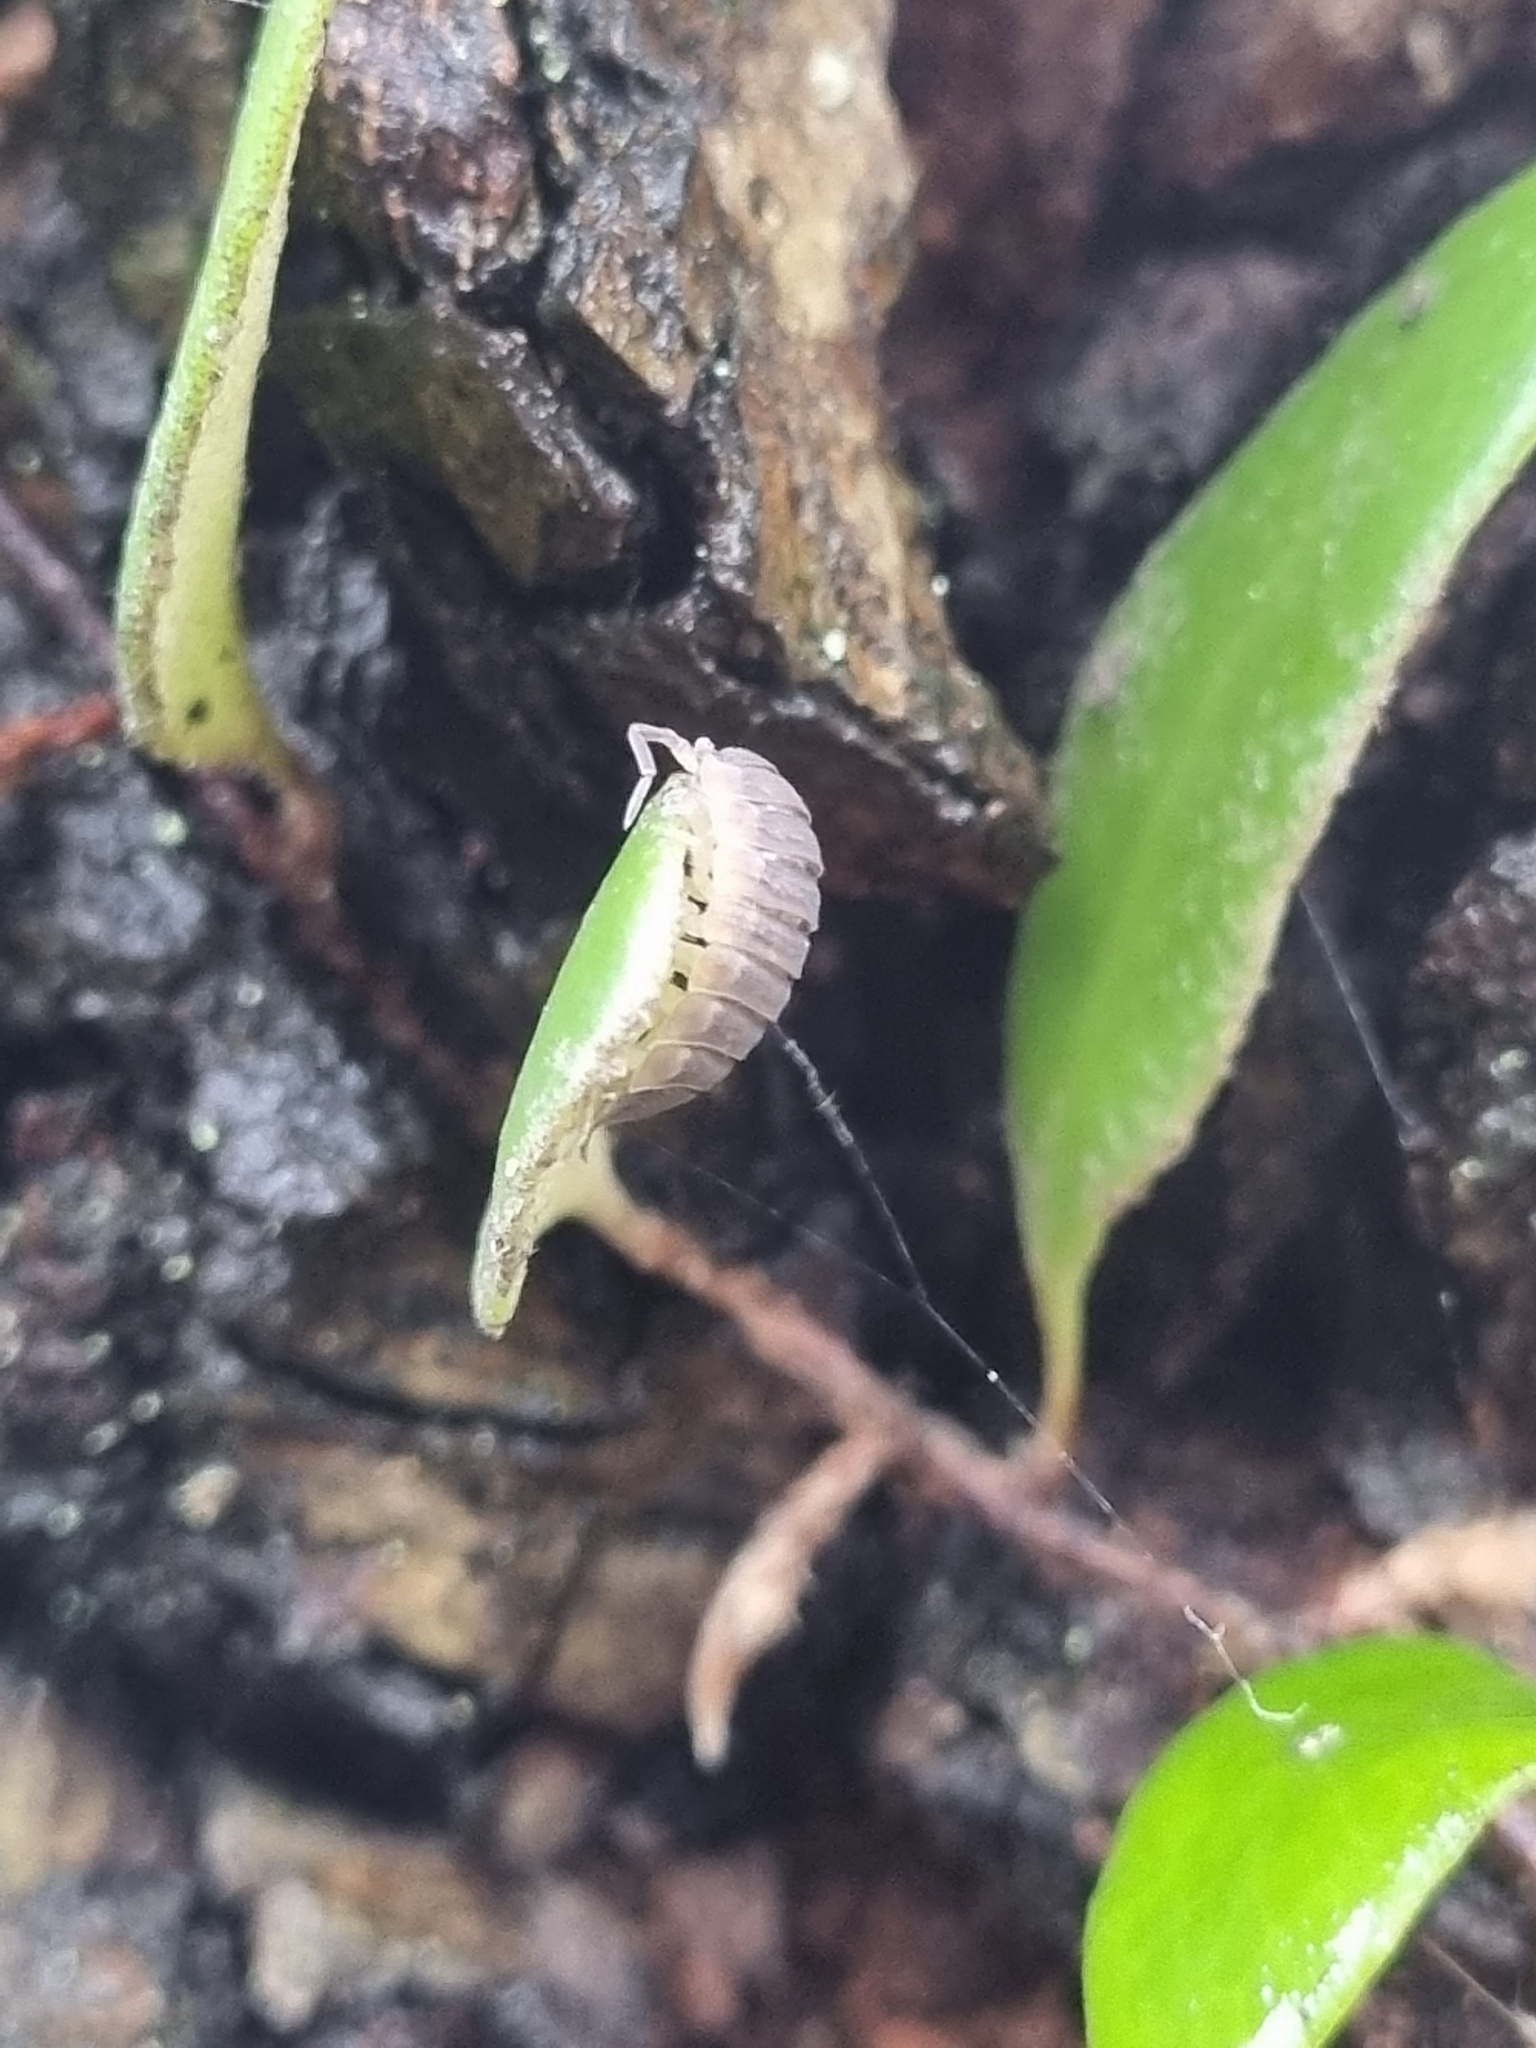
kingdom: Animalia
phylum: Arthropoda
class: Malacostraca
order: Isopoda
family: Porcellionidae
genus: Porcellio
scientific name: Porcellio scaber
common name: Common rough woodlouse
